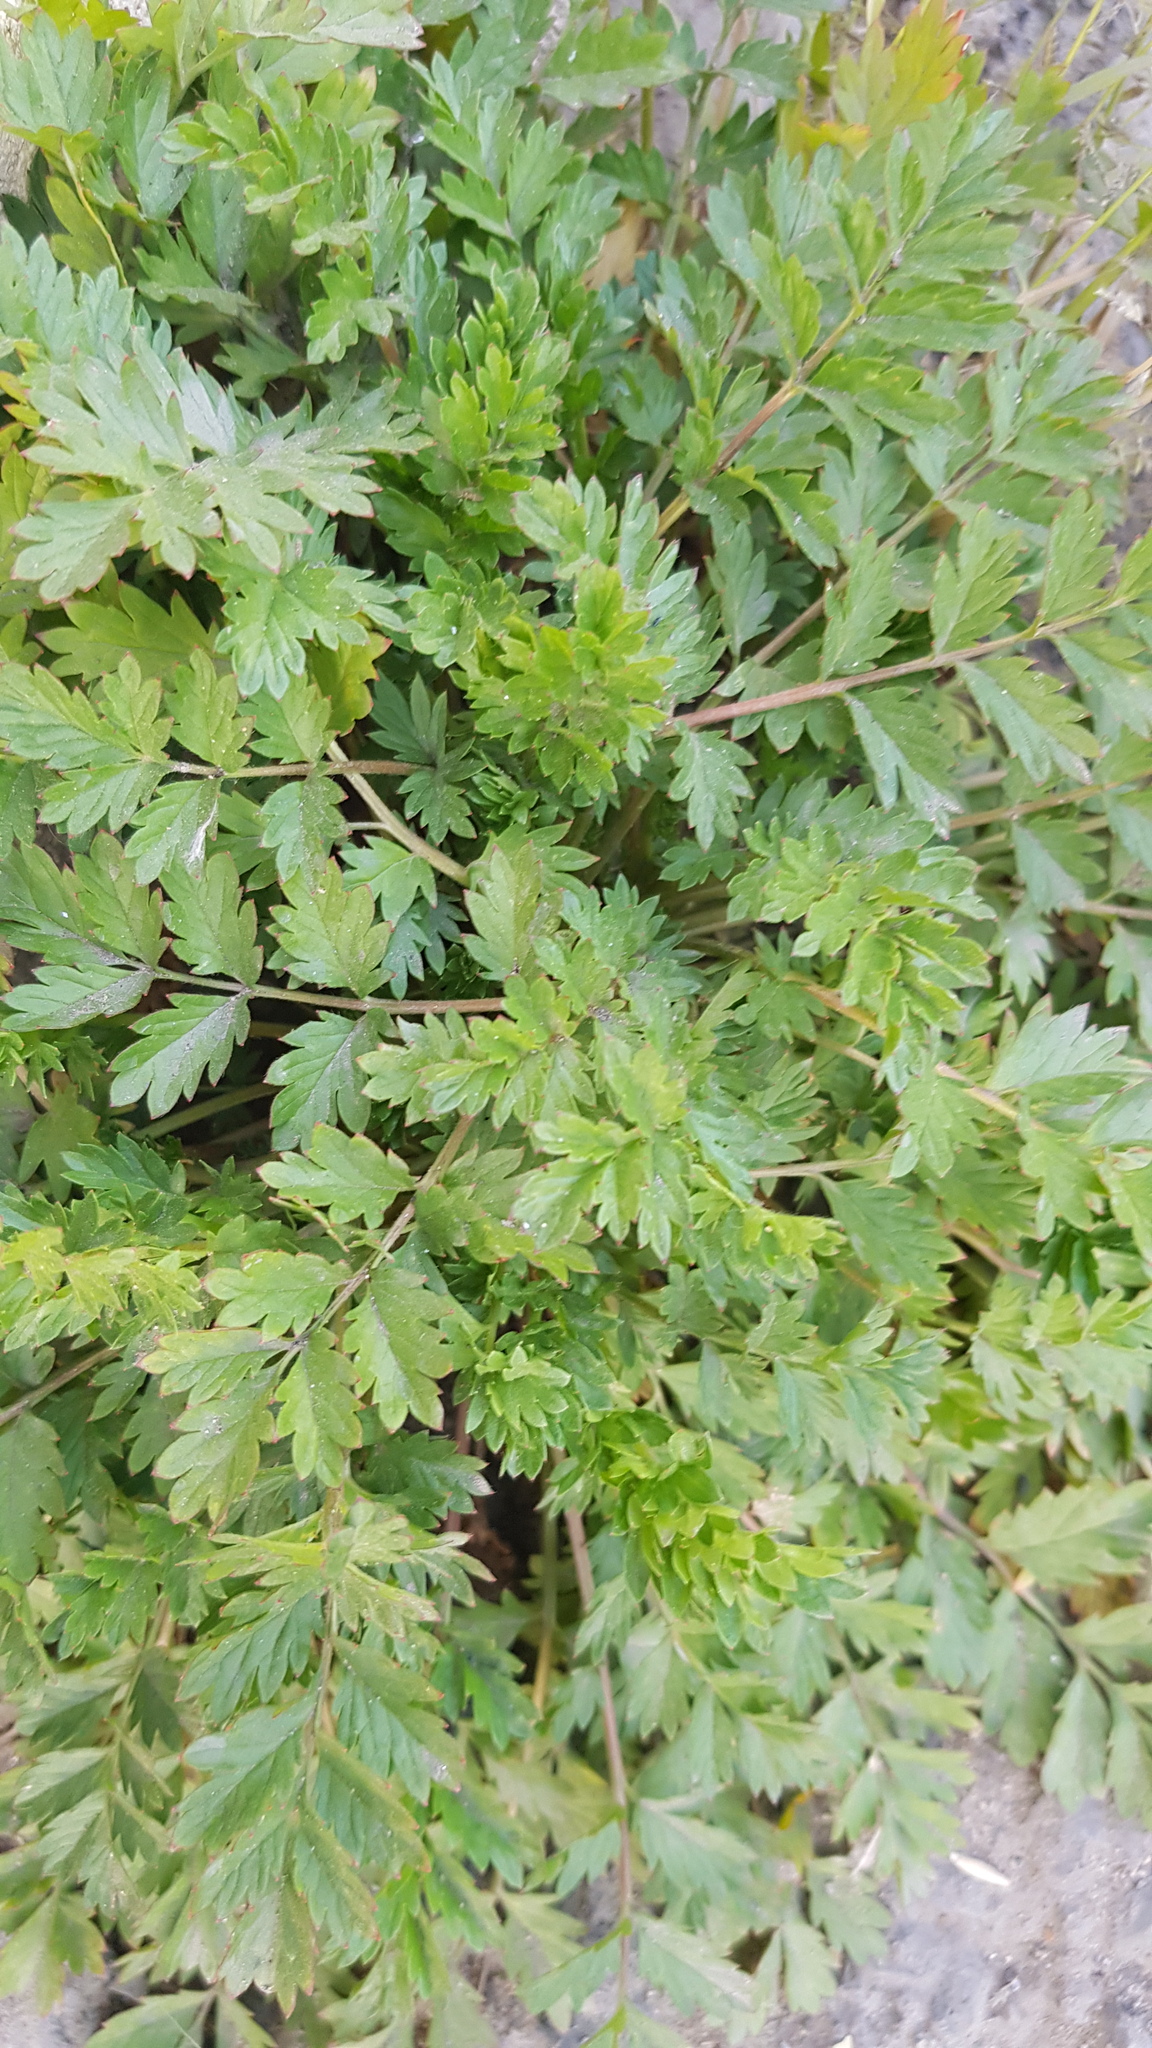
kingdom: Plantae
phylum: Tracheophyta
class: Magnoliopsida
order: Rosales
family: Rosaceae
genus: Potentilla
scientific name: Potentilla supina
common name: Prostrate cinquefoil
